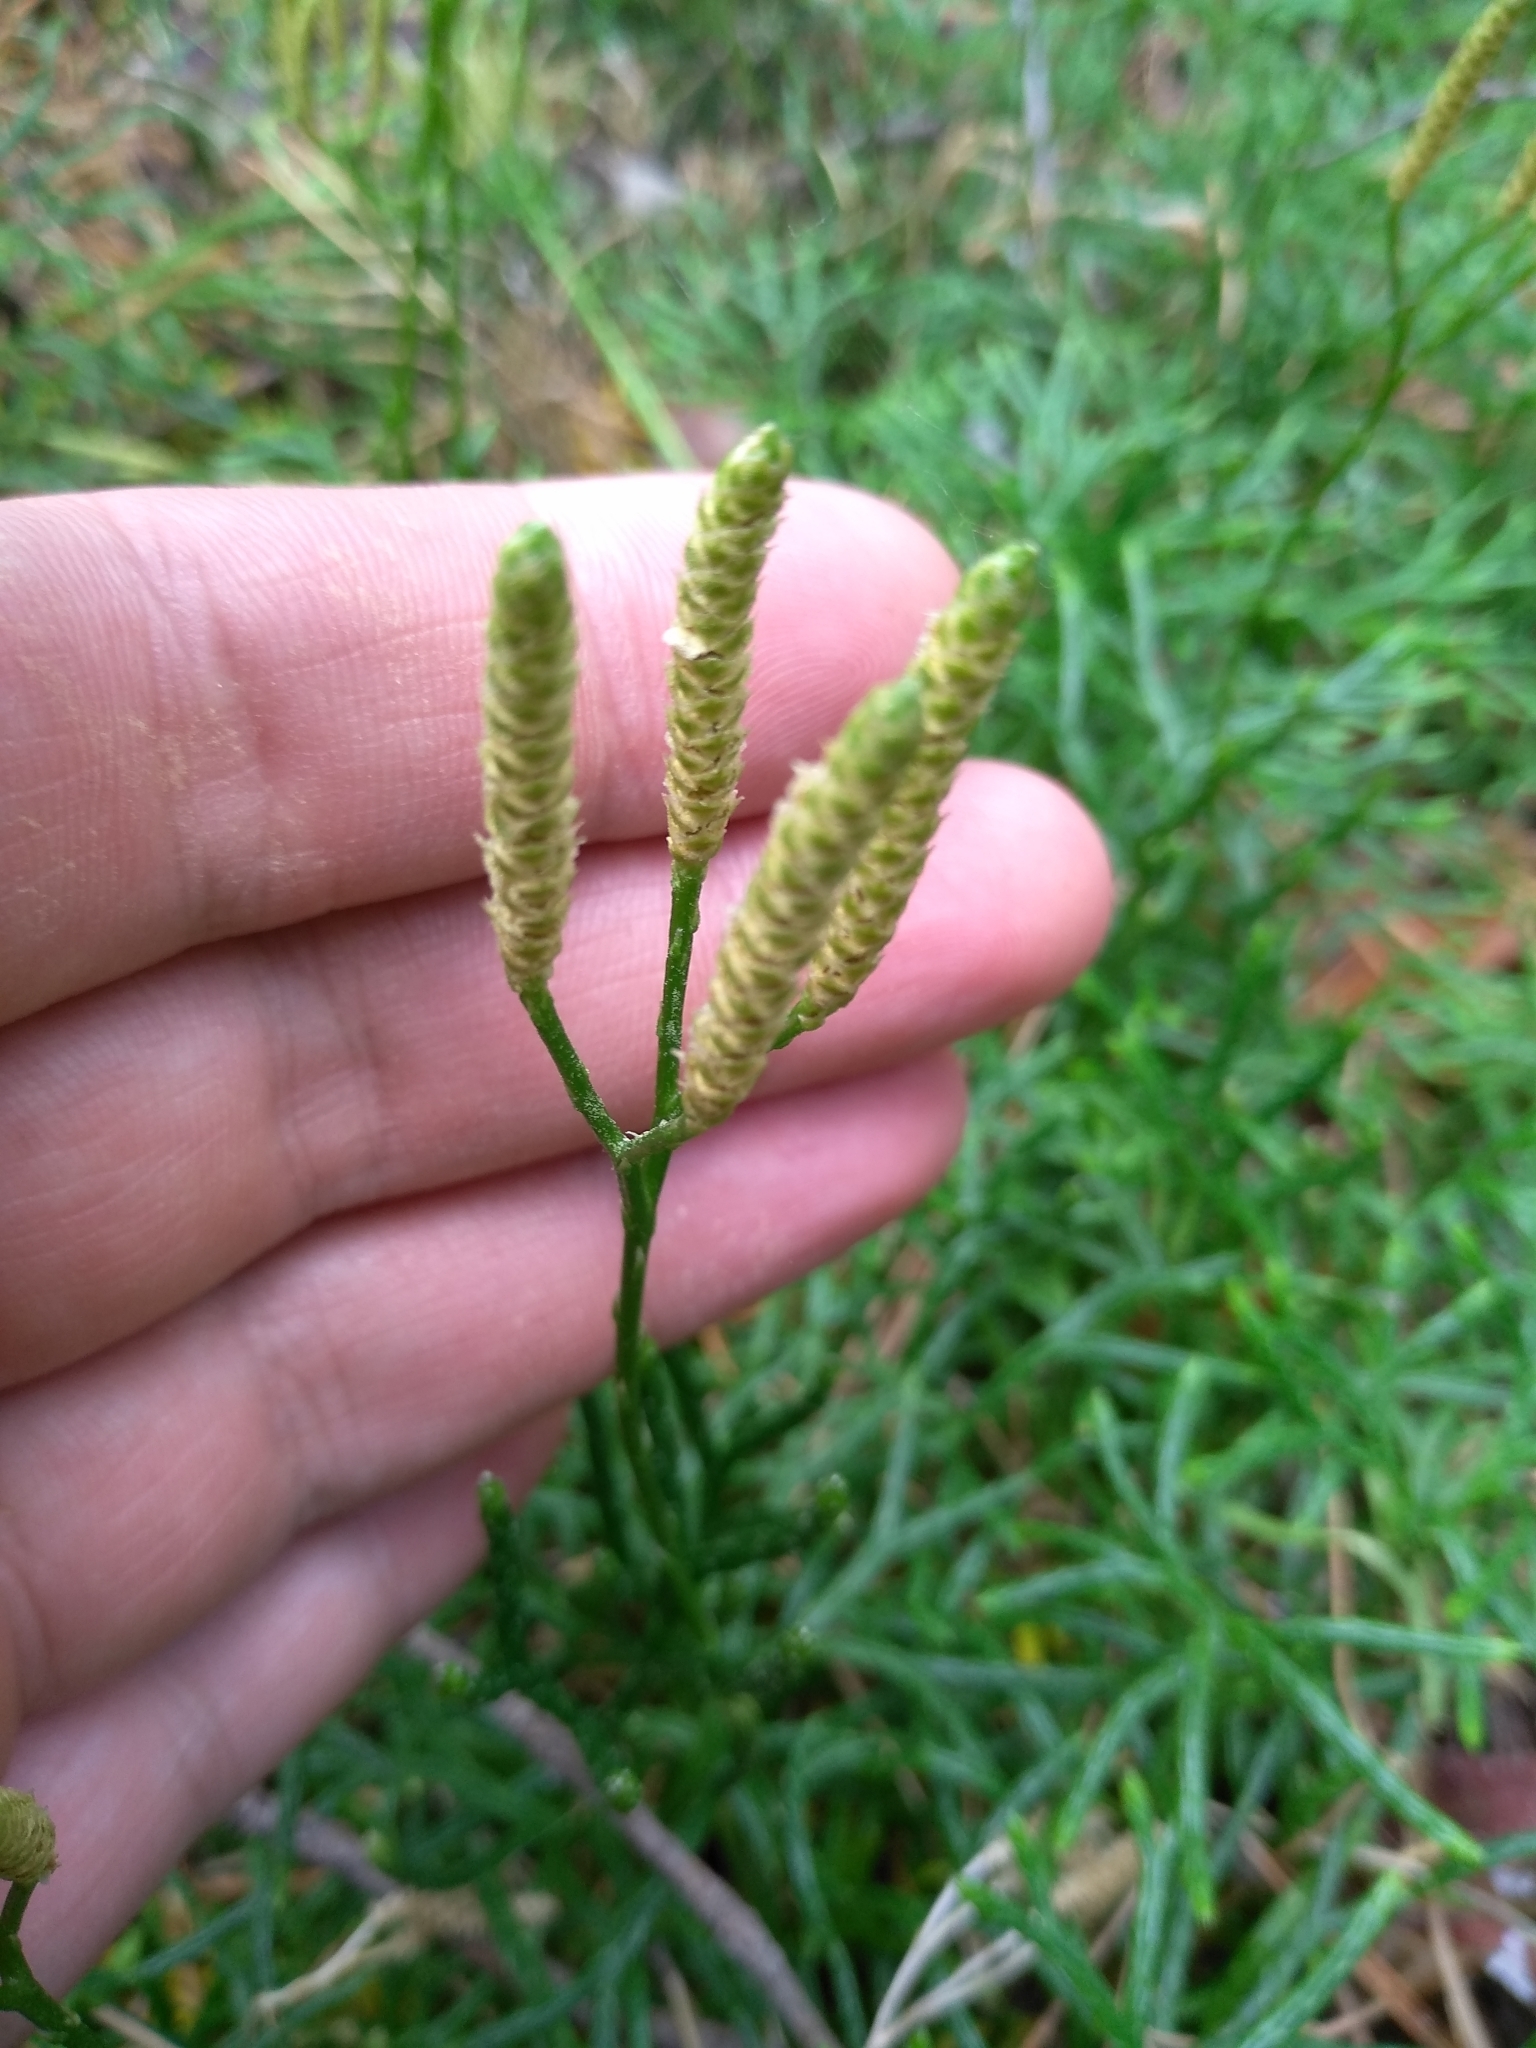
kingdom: Plantae
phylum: Tracheophyta
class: Lycopodiopsida
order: Lycopodiales
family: Lycopodiaceae
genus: Diphasiastrum
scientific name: Diphasiastrum complanatum
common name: Northern running-pine
